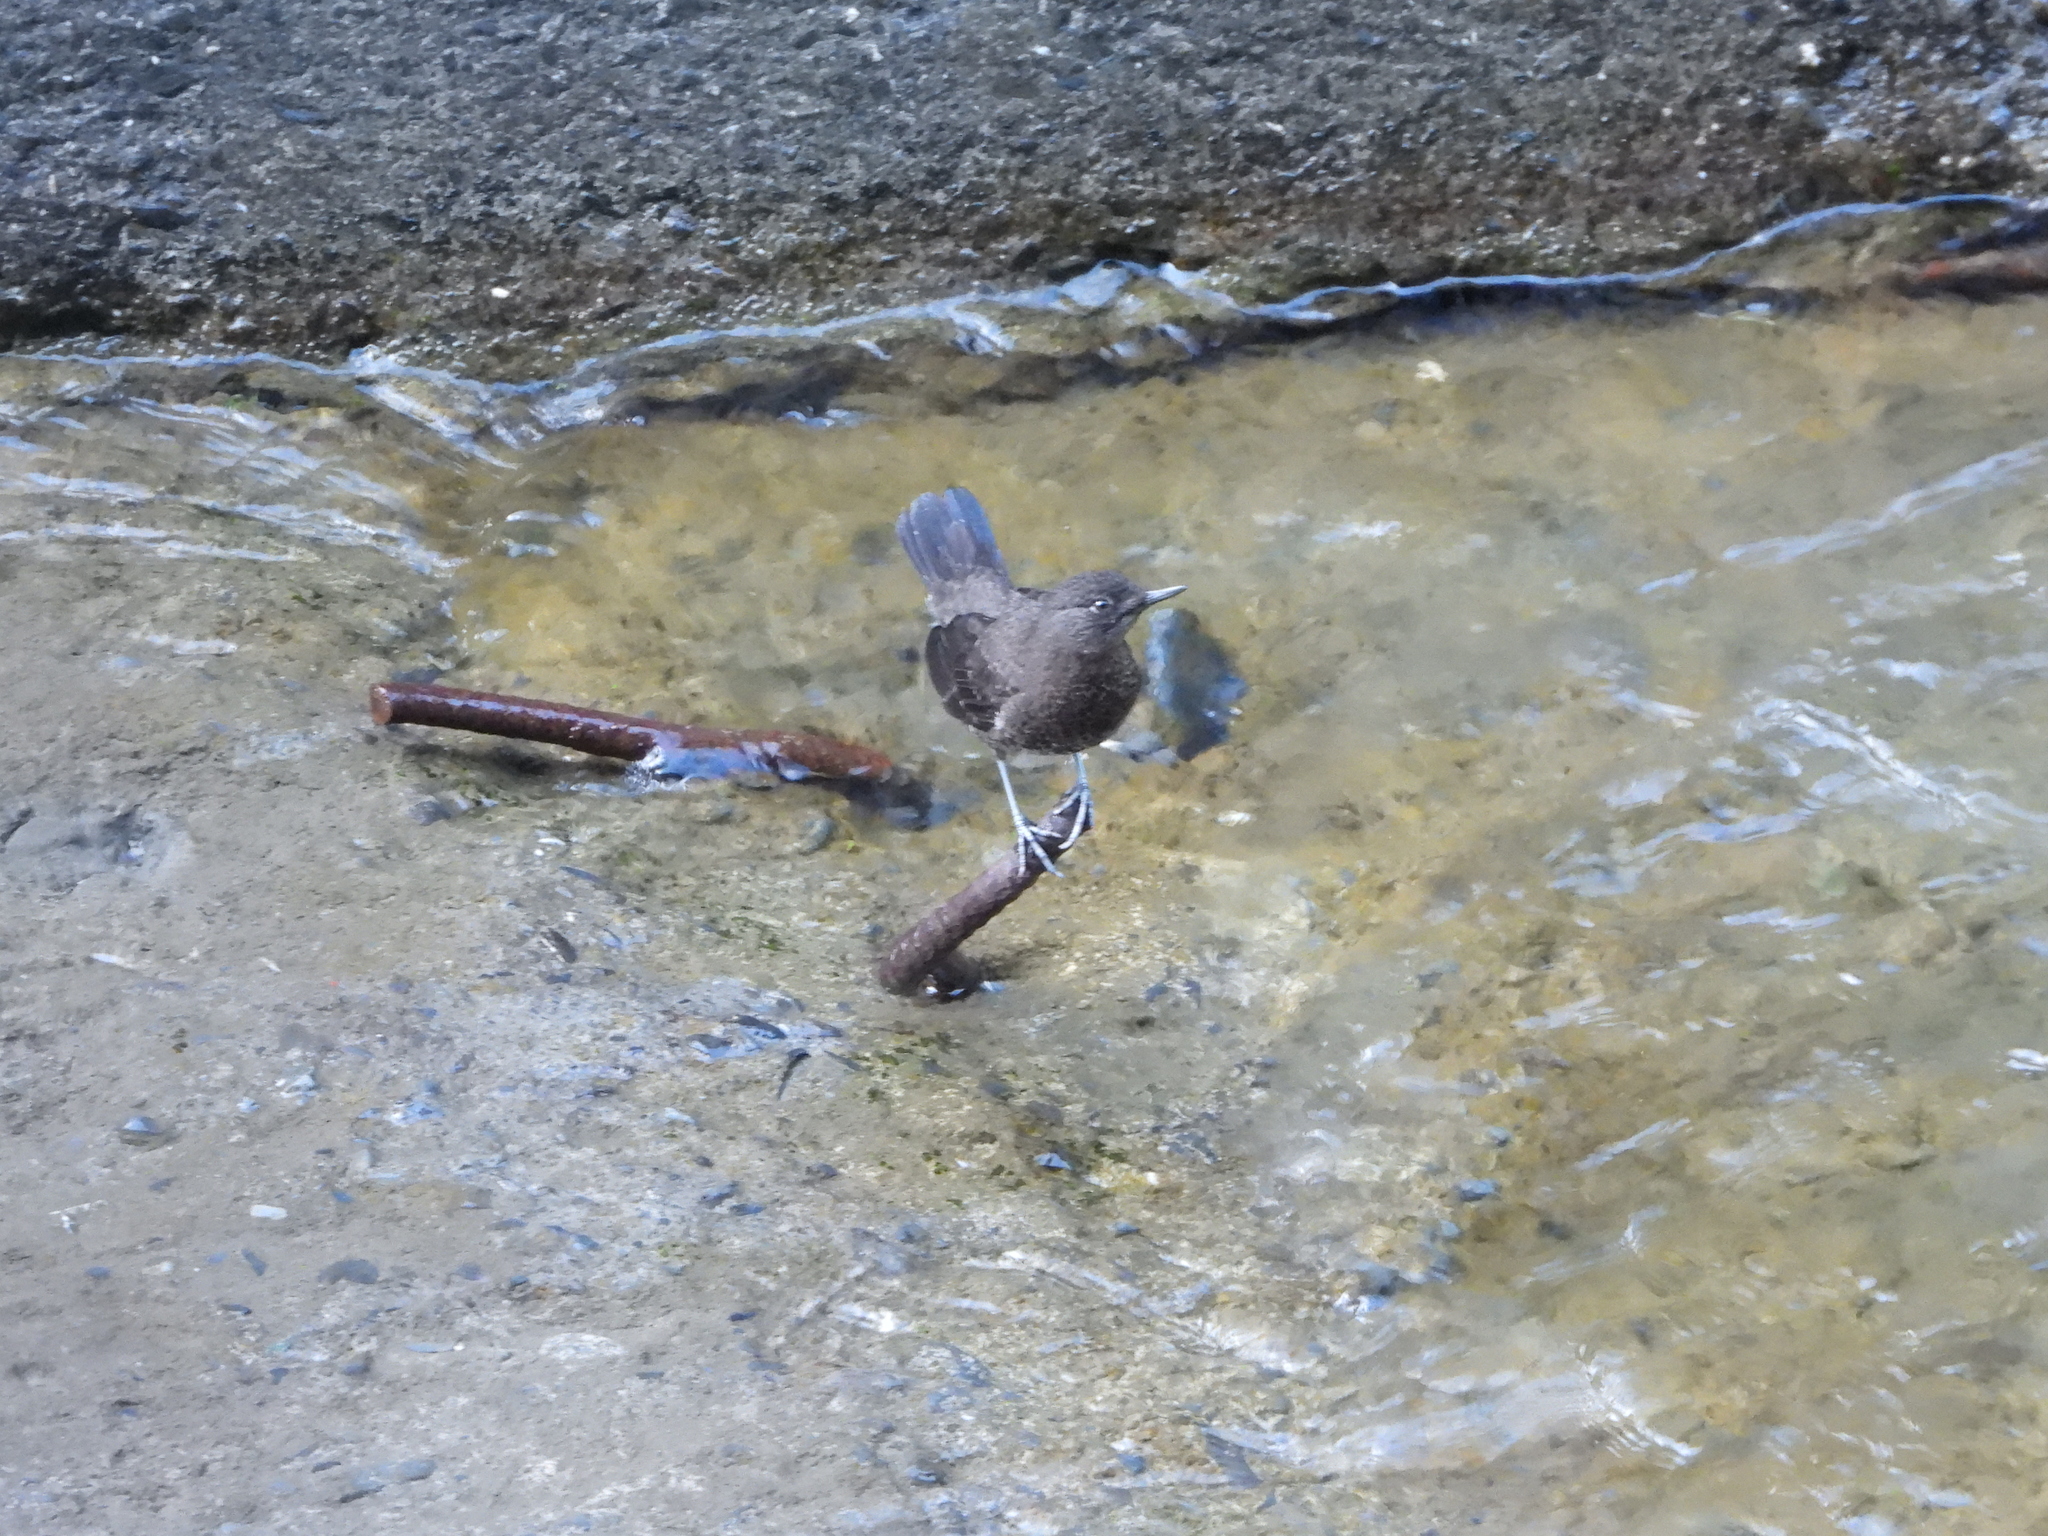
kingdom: Animalia
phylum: Chordata
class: Aves
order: Passeriformes
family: Cinclidae
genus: Cinclus
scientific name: Cinclus pallasii
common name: Brown dipper
